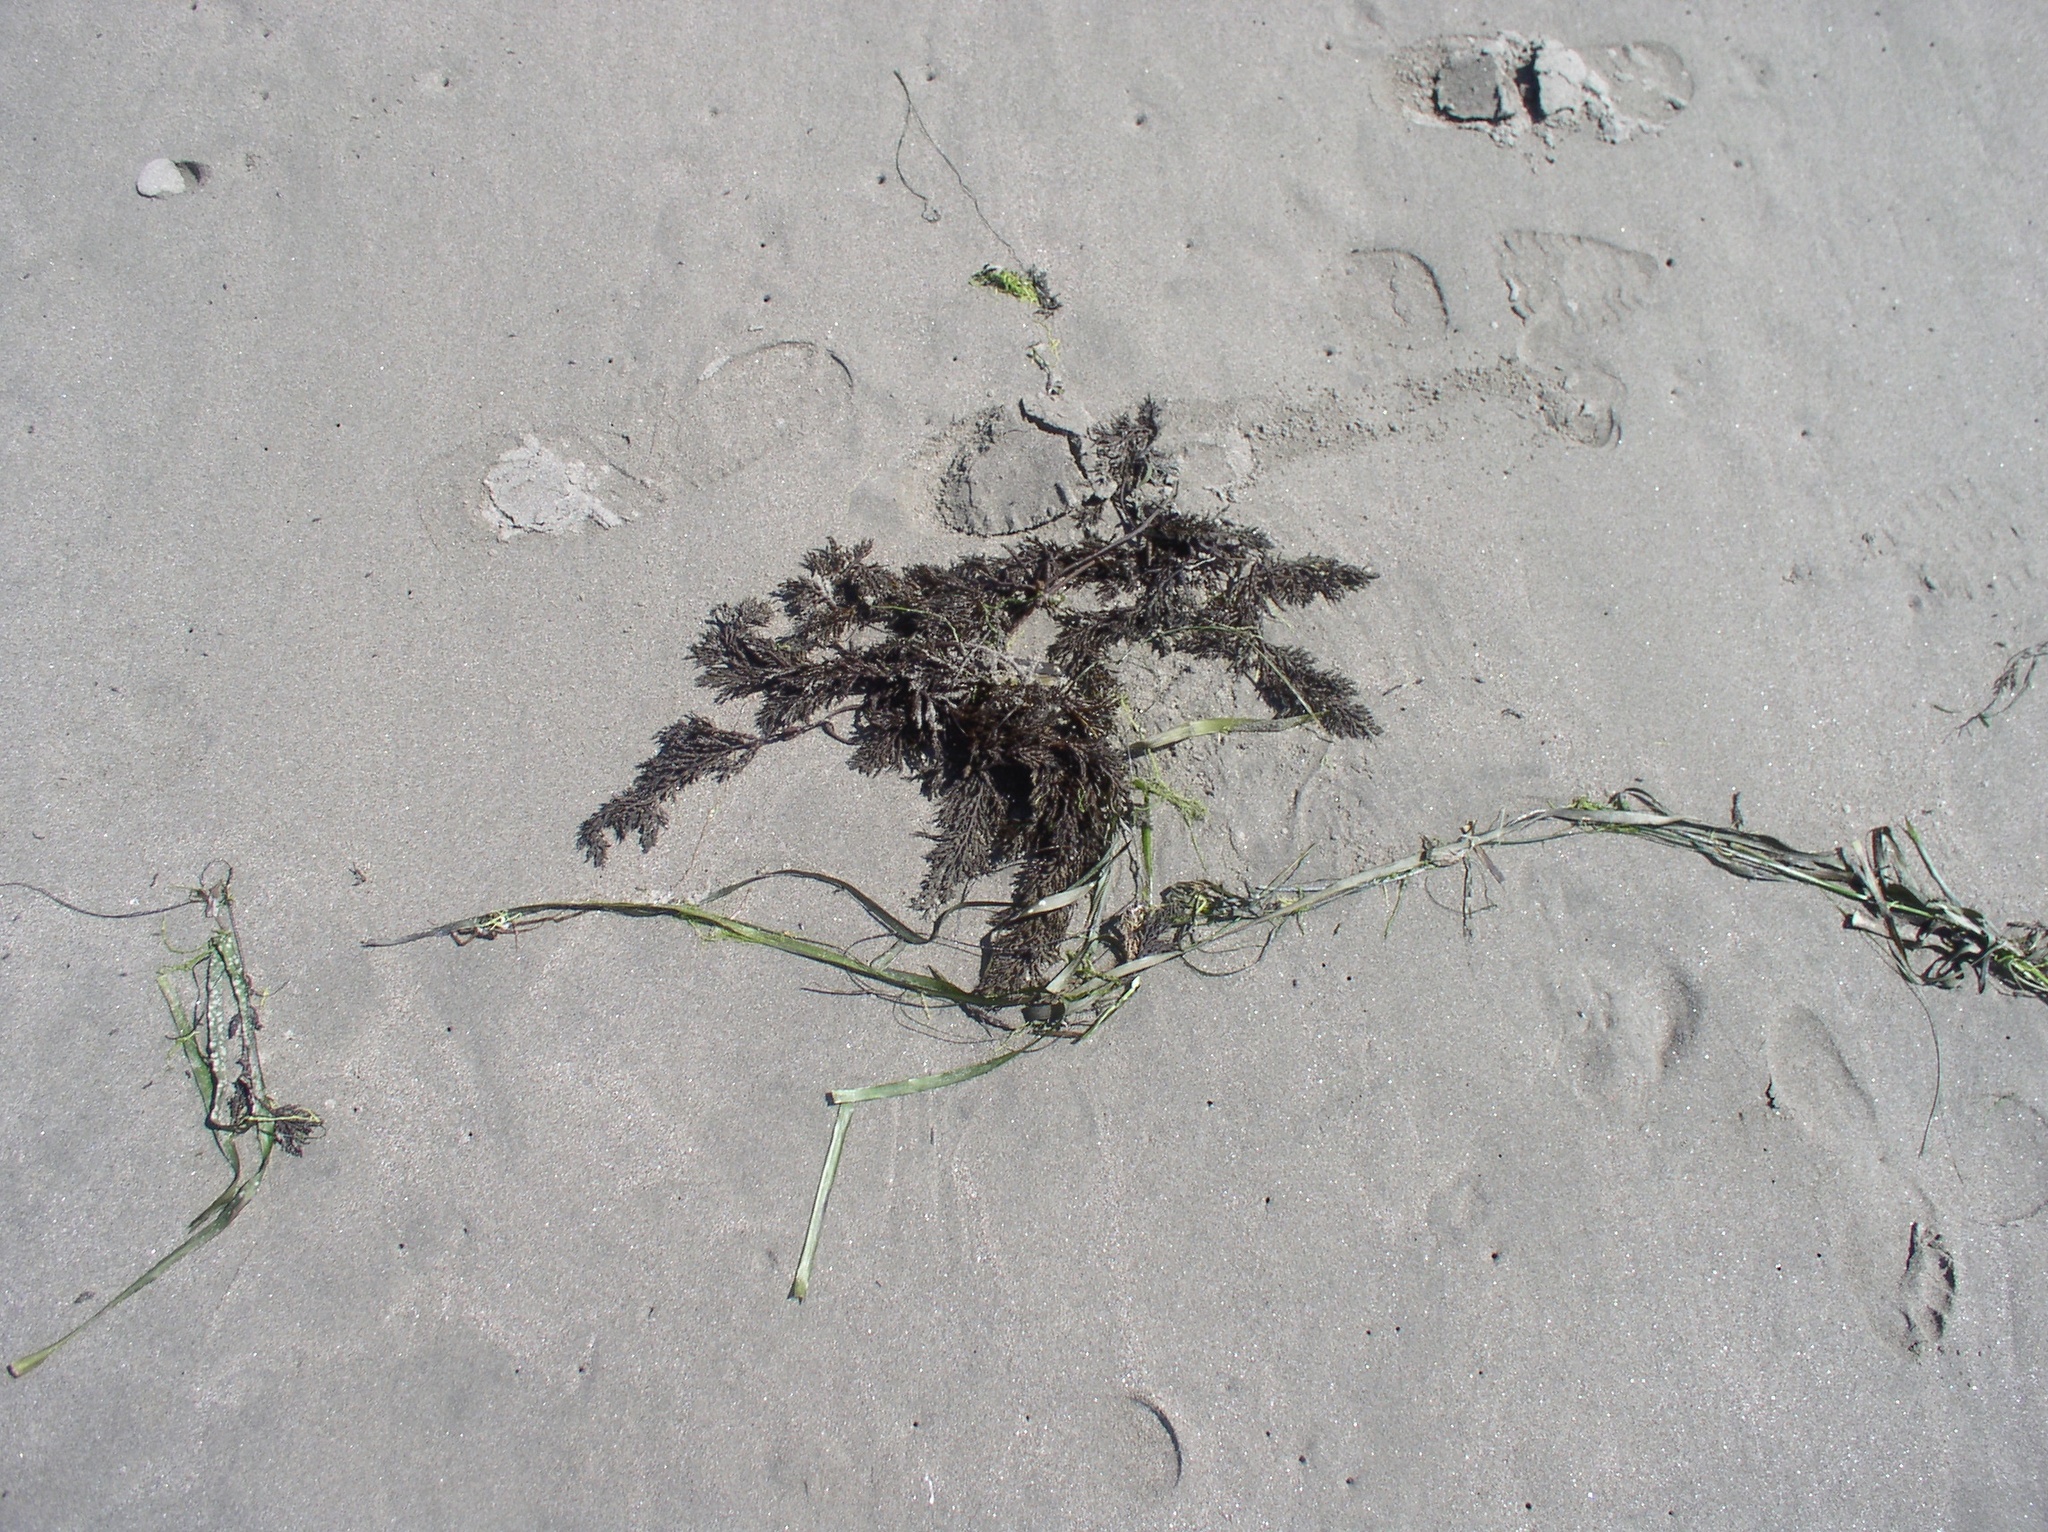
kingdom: Chromista
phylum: Ochrophyta
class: Phaeophyceae
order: Fucales
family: Sargassaceae
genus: Stephanocystis
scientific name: Stephanocystis
